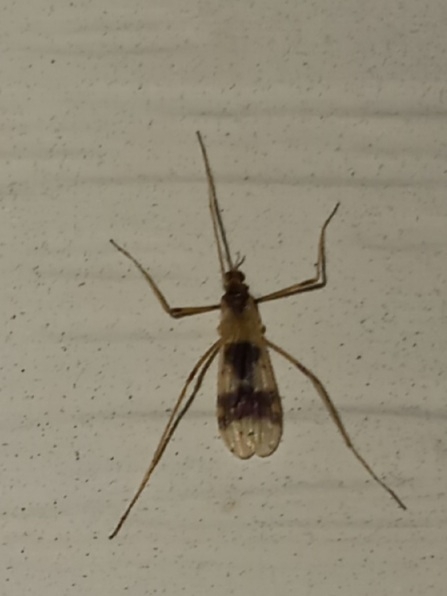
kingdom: Animalia
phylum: Arthropoda
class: Insecta
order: Diptera
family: Limoniidae
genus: Ilisia
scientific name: Ilisia venusta
